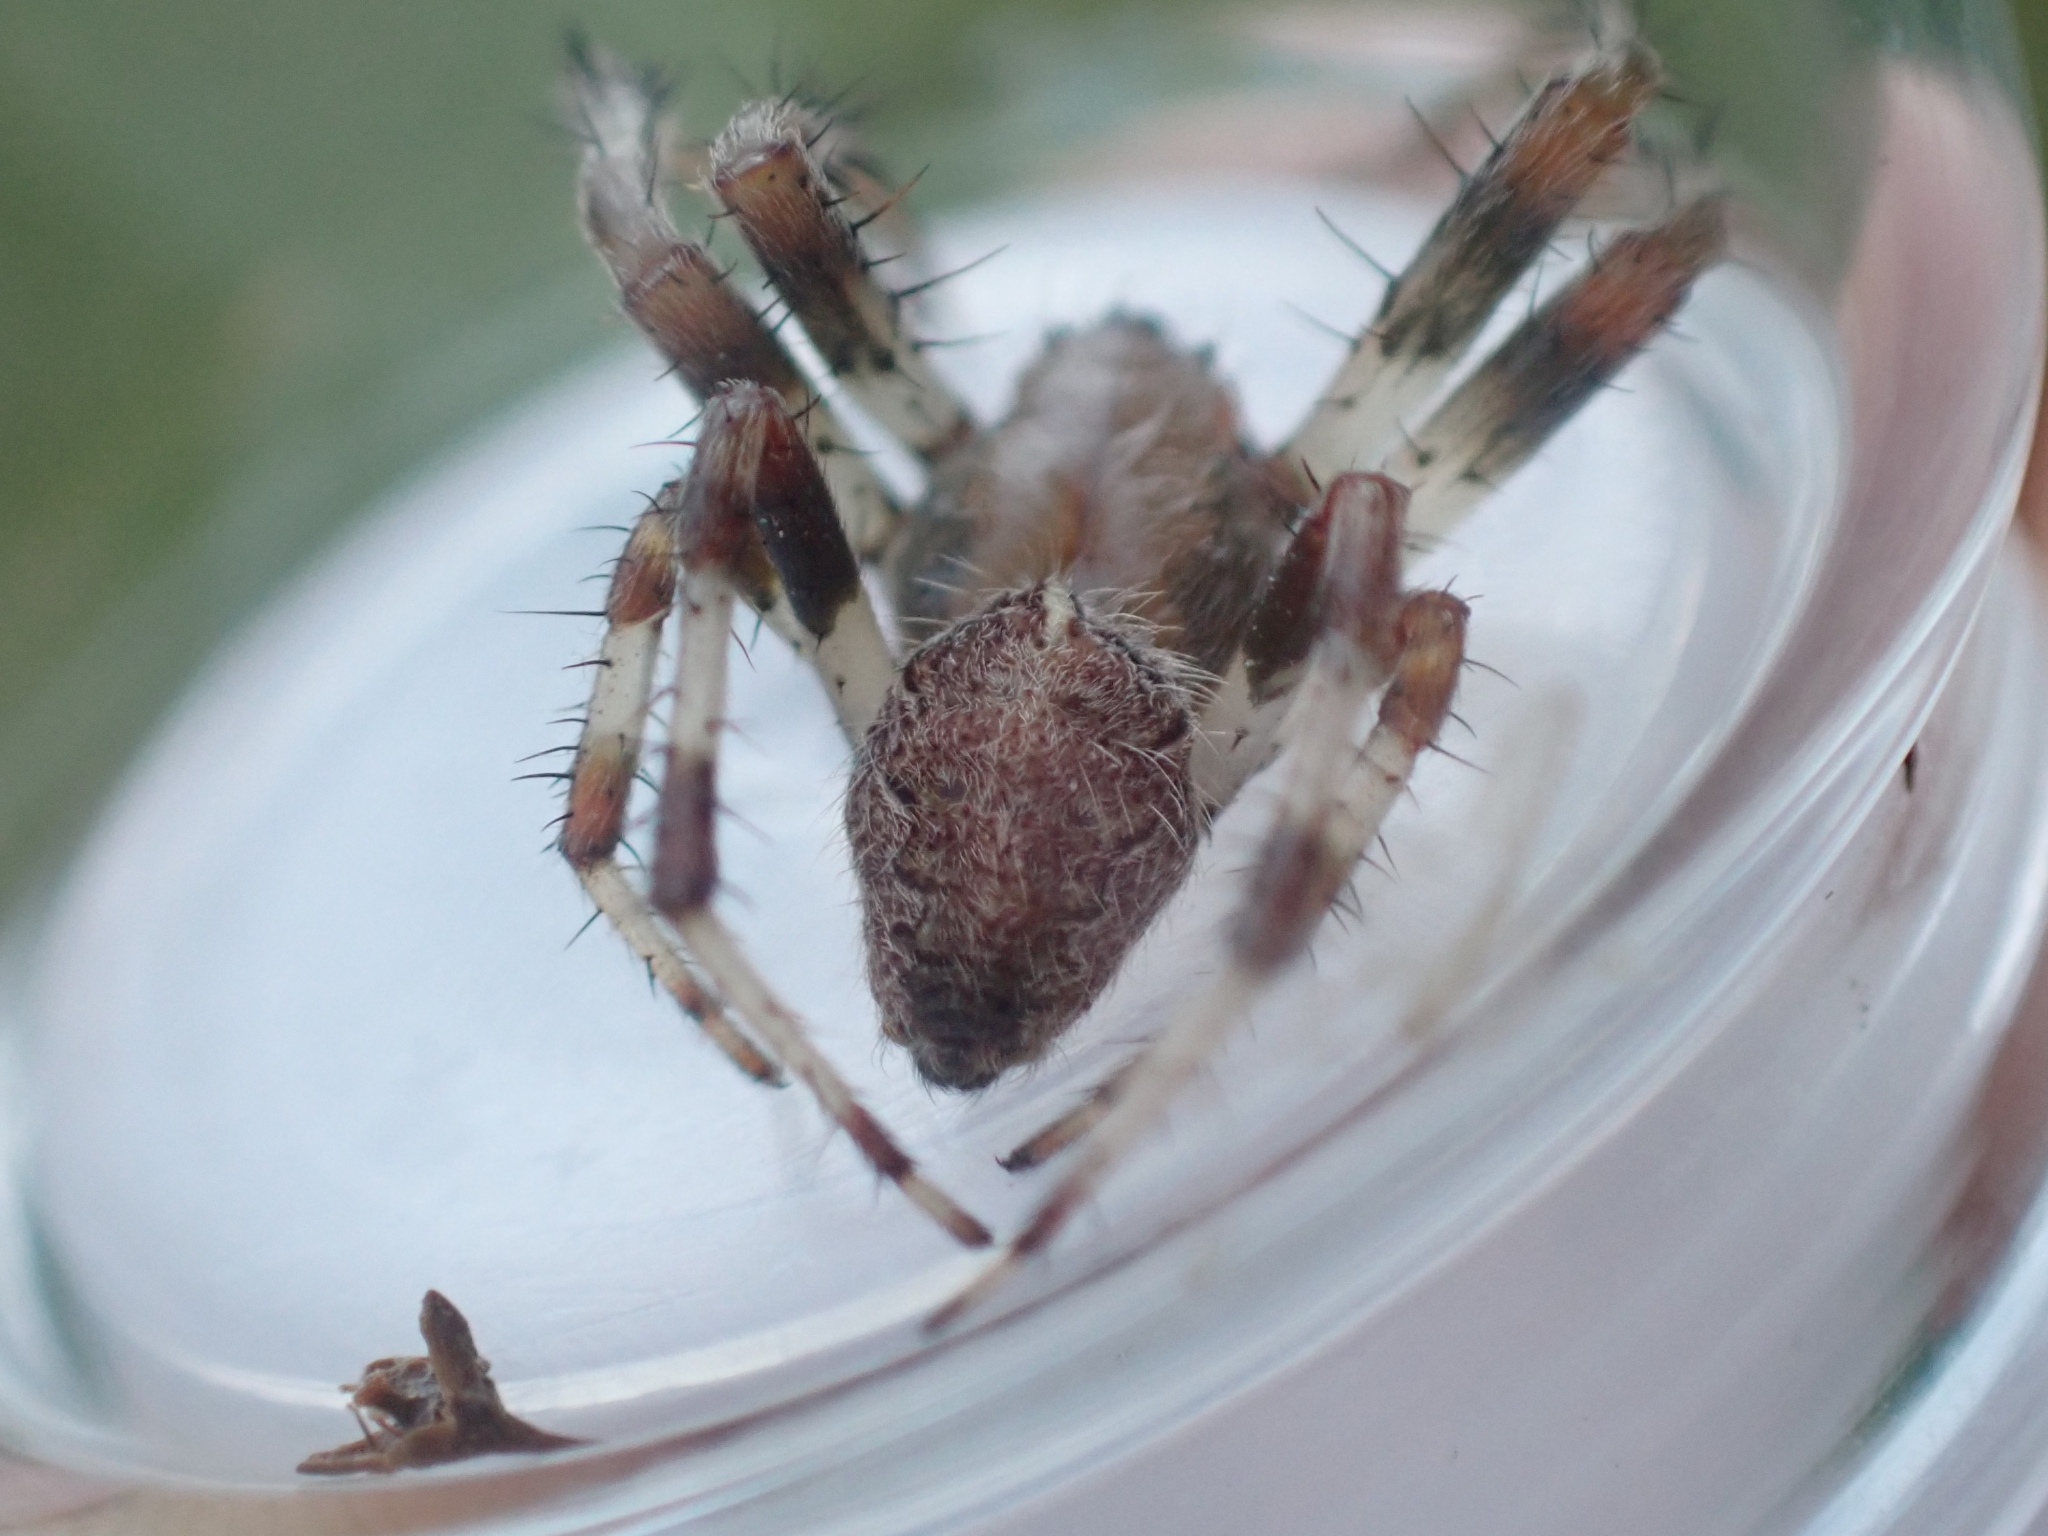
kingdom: Animalia
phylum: Arthropoda
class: Arachnida
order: Araneae
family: Araneidae
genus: Araneus
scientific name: Araneus marmoreus
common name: Marbled orbweaver
